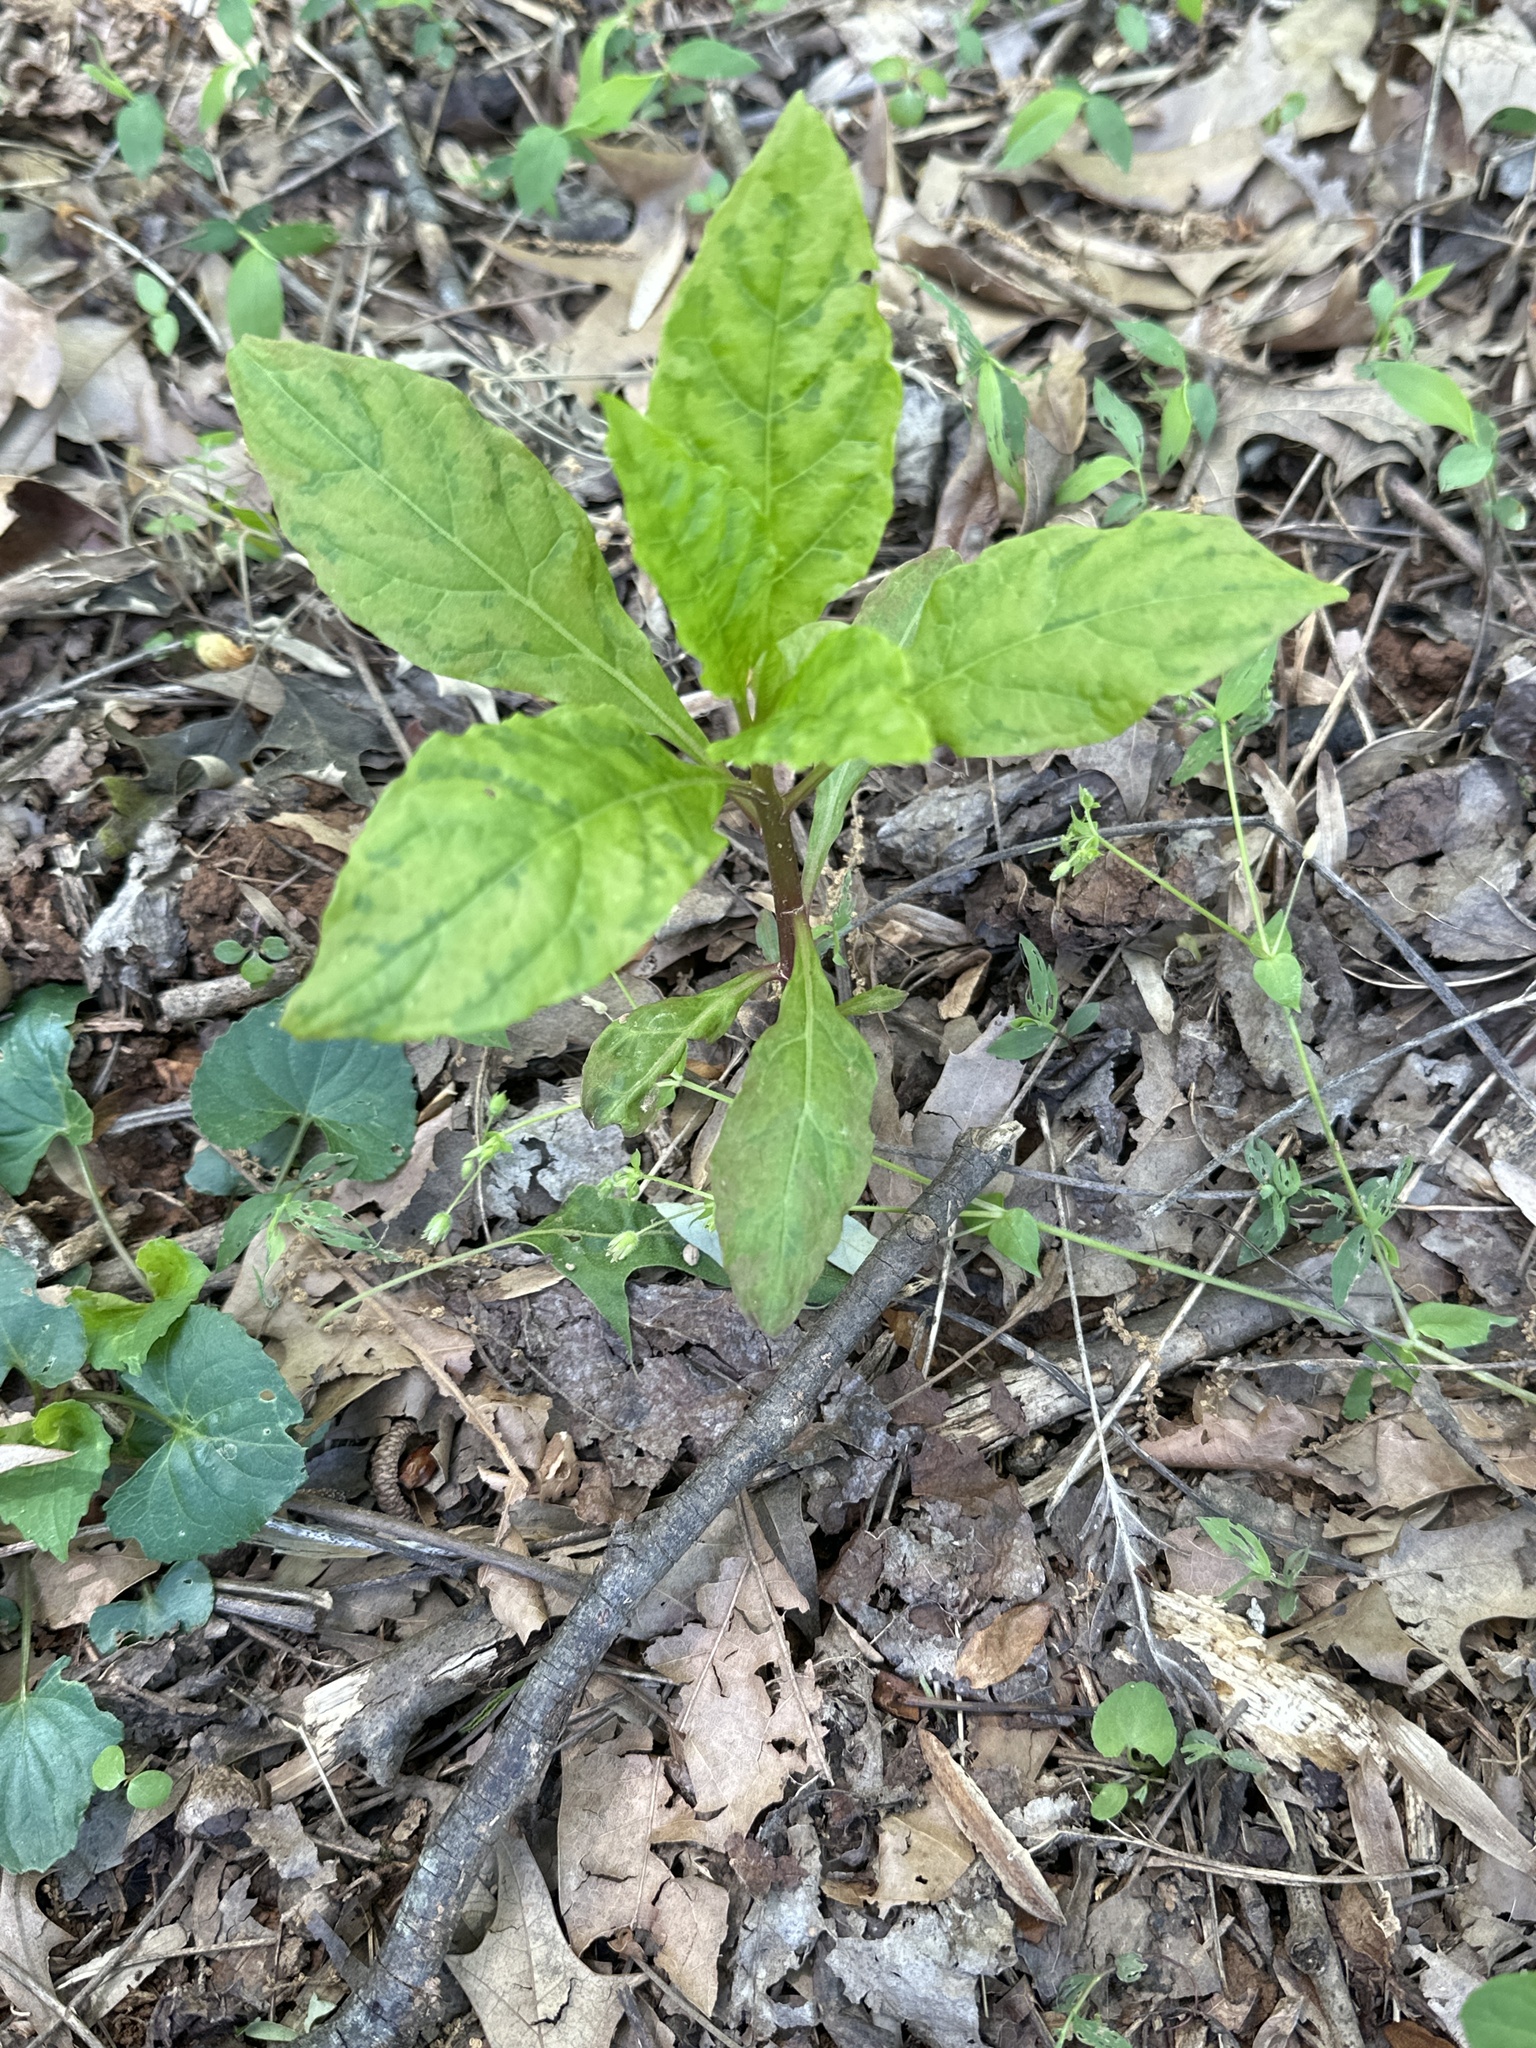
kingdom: Plantae
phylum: Tracheophyta
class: Magnoliopsida
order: Caryophyllales
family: Phytolaccaceae
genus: Phytolacca
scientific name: Phytolacca americana
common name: American pokeweed
